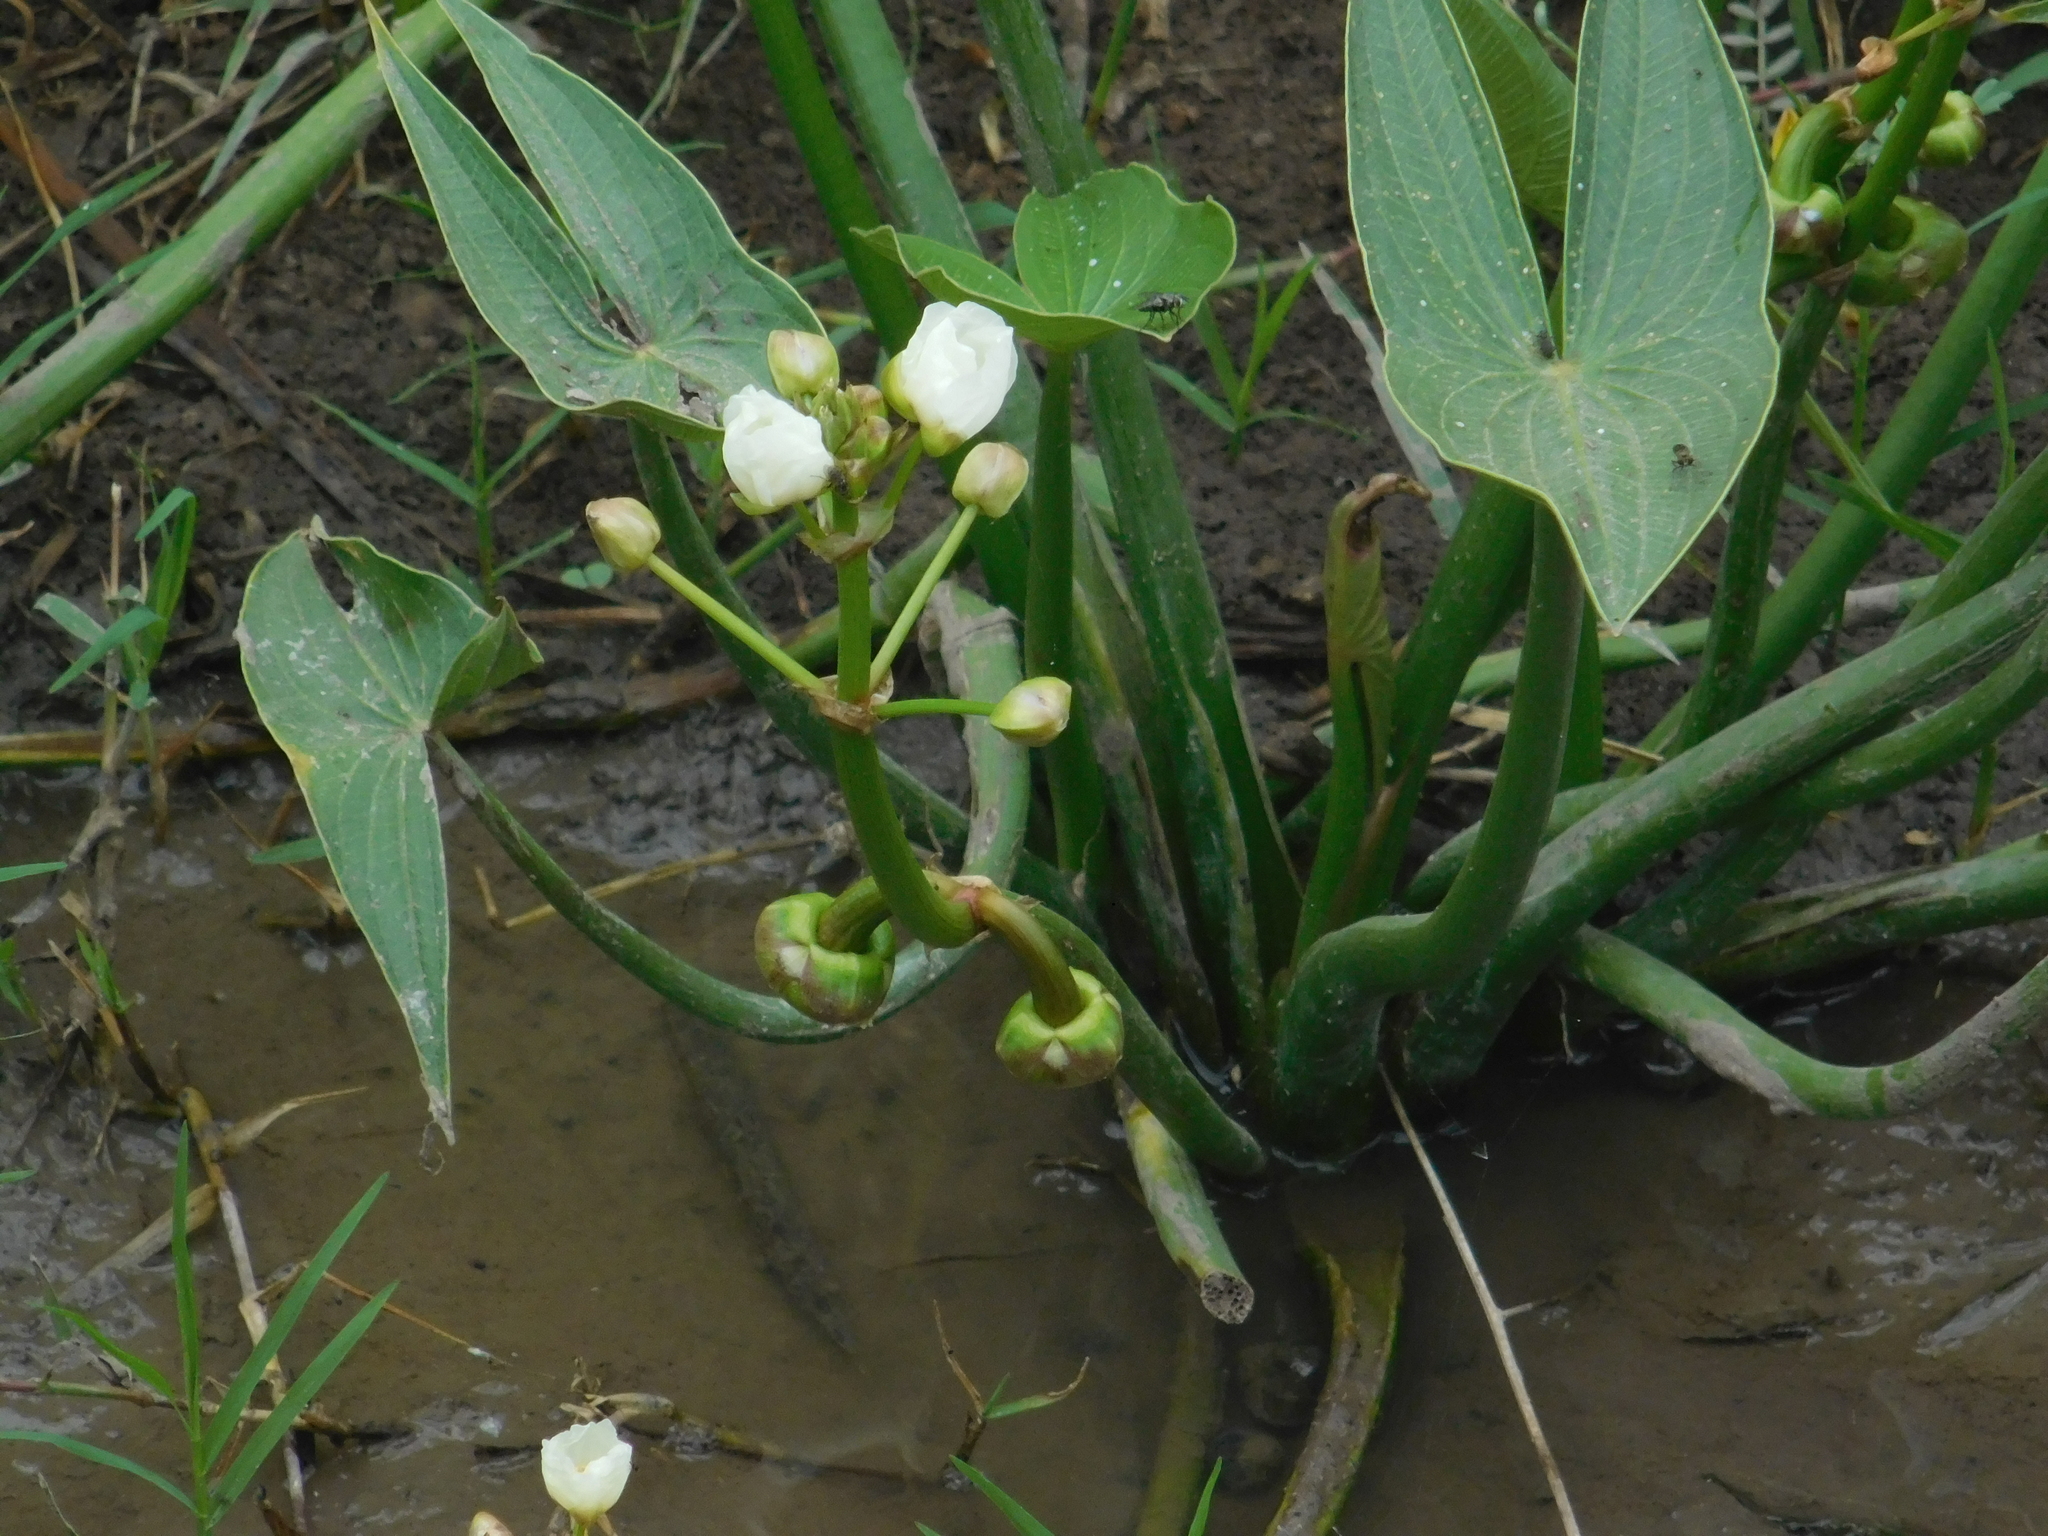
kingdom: Plantae
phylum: Tracheophyta
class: Liliopsida
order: Alismatales
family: Alismataceae
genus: Sagittaria
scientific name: Sagittaria montevidensis
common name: Giant arrowhead
